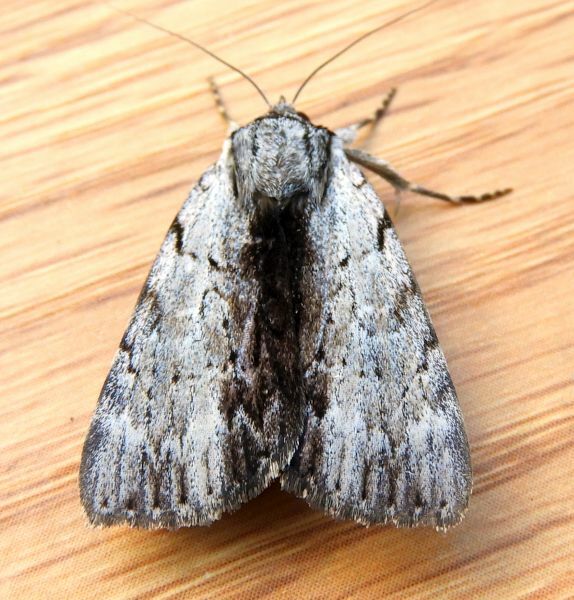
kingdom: Animalia
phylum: Arthropoda
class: Insecta
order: Lepidoptera
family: Erebidae
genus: Catocala
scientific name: Catocala gracilis
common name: Graceful underwing
